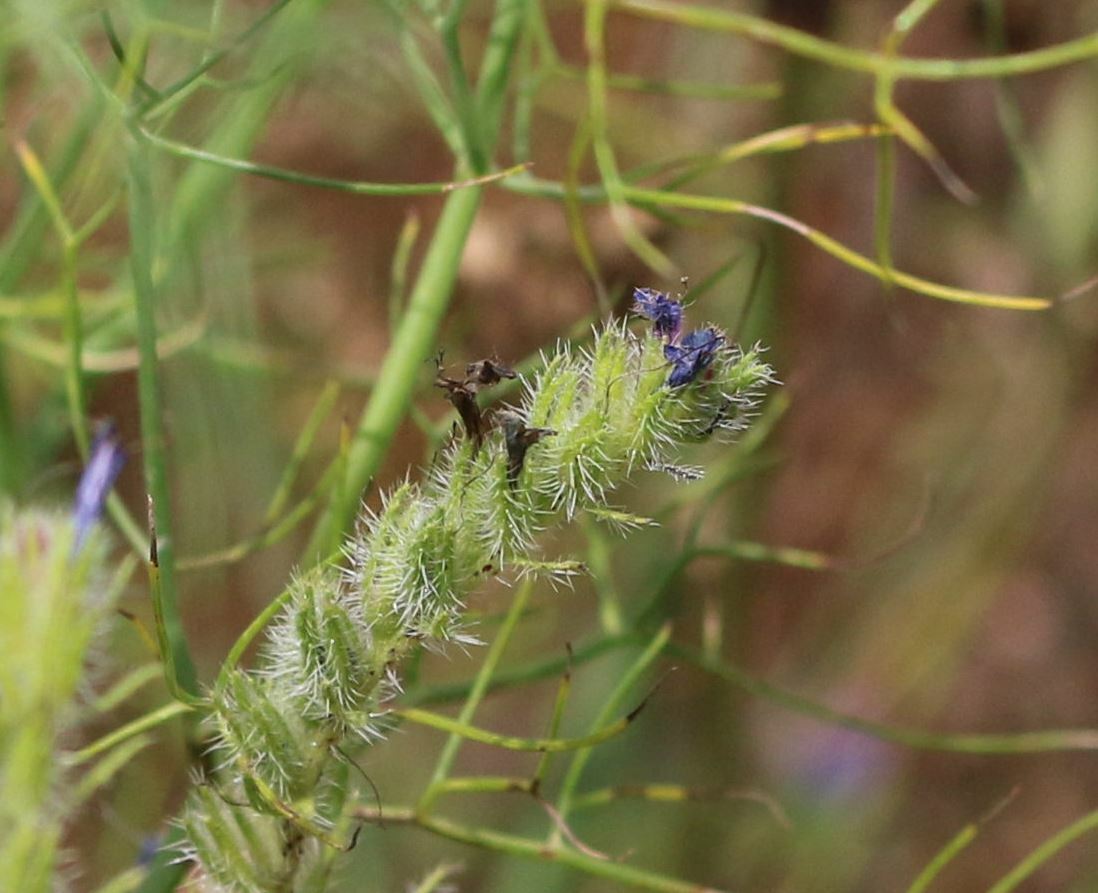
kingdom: Plantae
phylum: Tracheophyta
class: Magnoliopsida
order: Boraginales
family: Boraginaceae
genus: Echium
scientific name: Echium vulgare
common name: Common viper's bugloss
